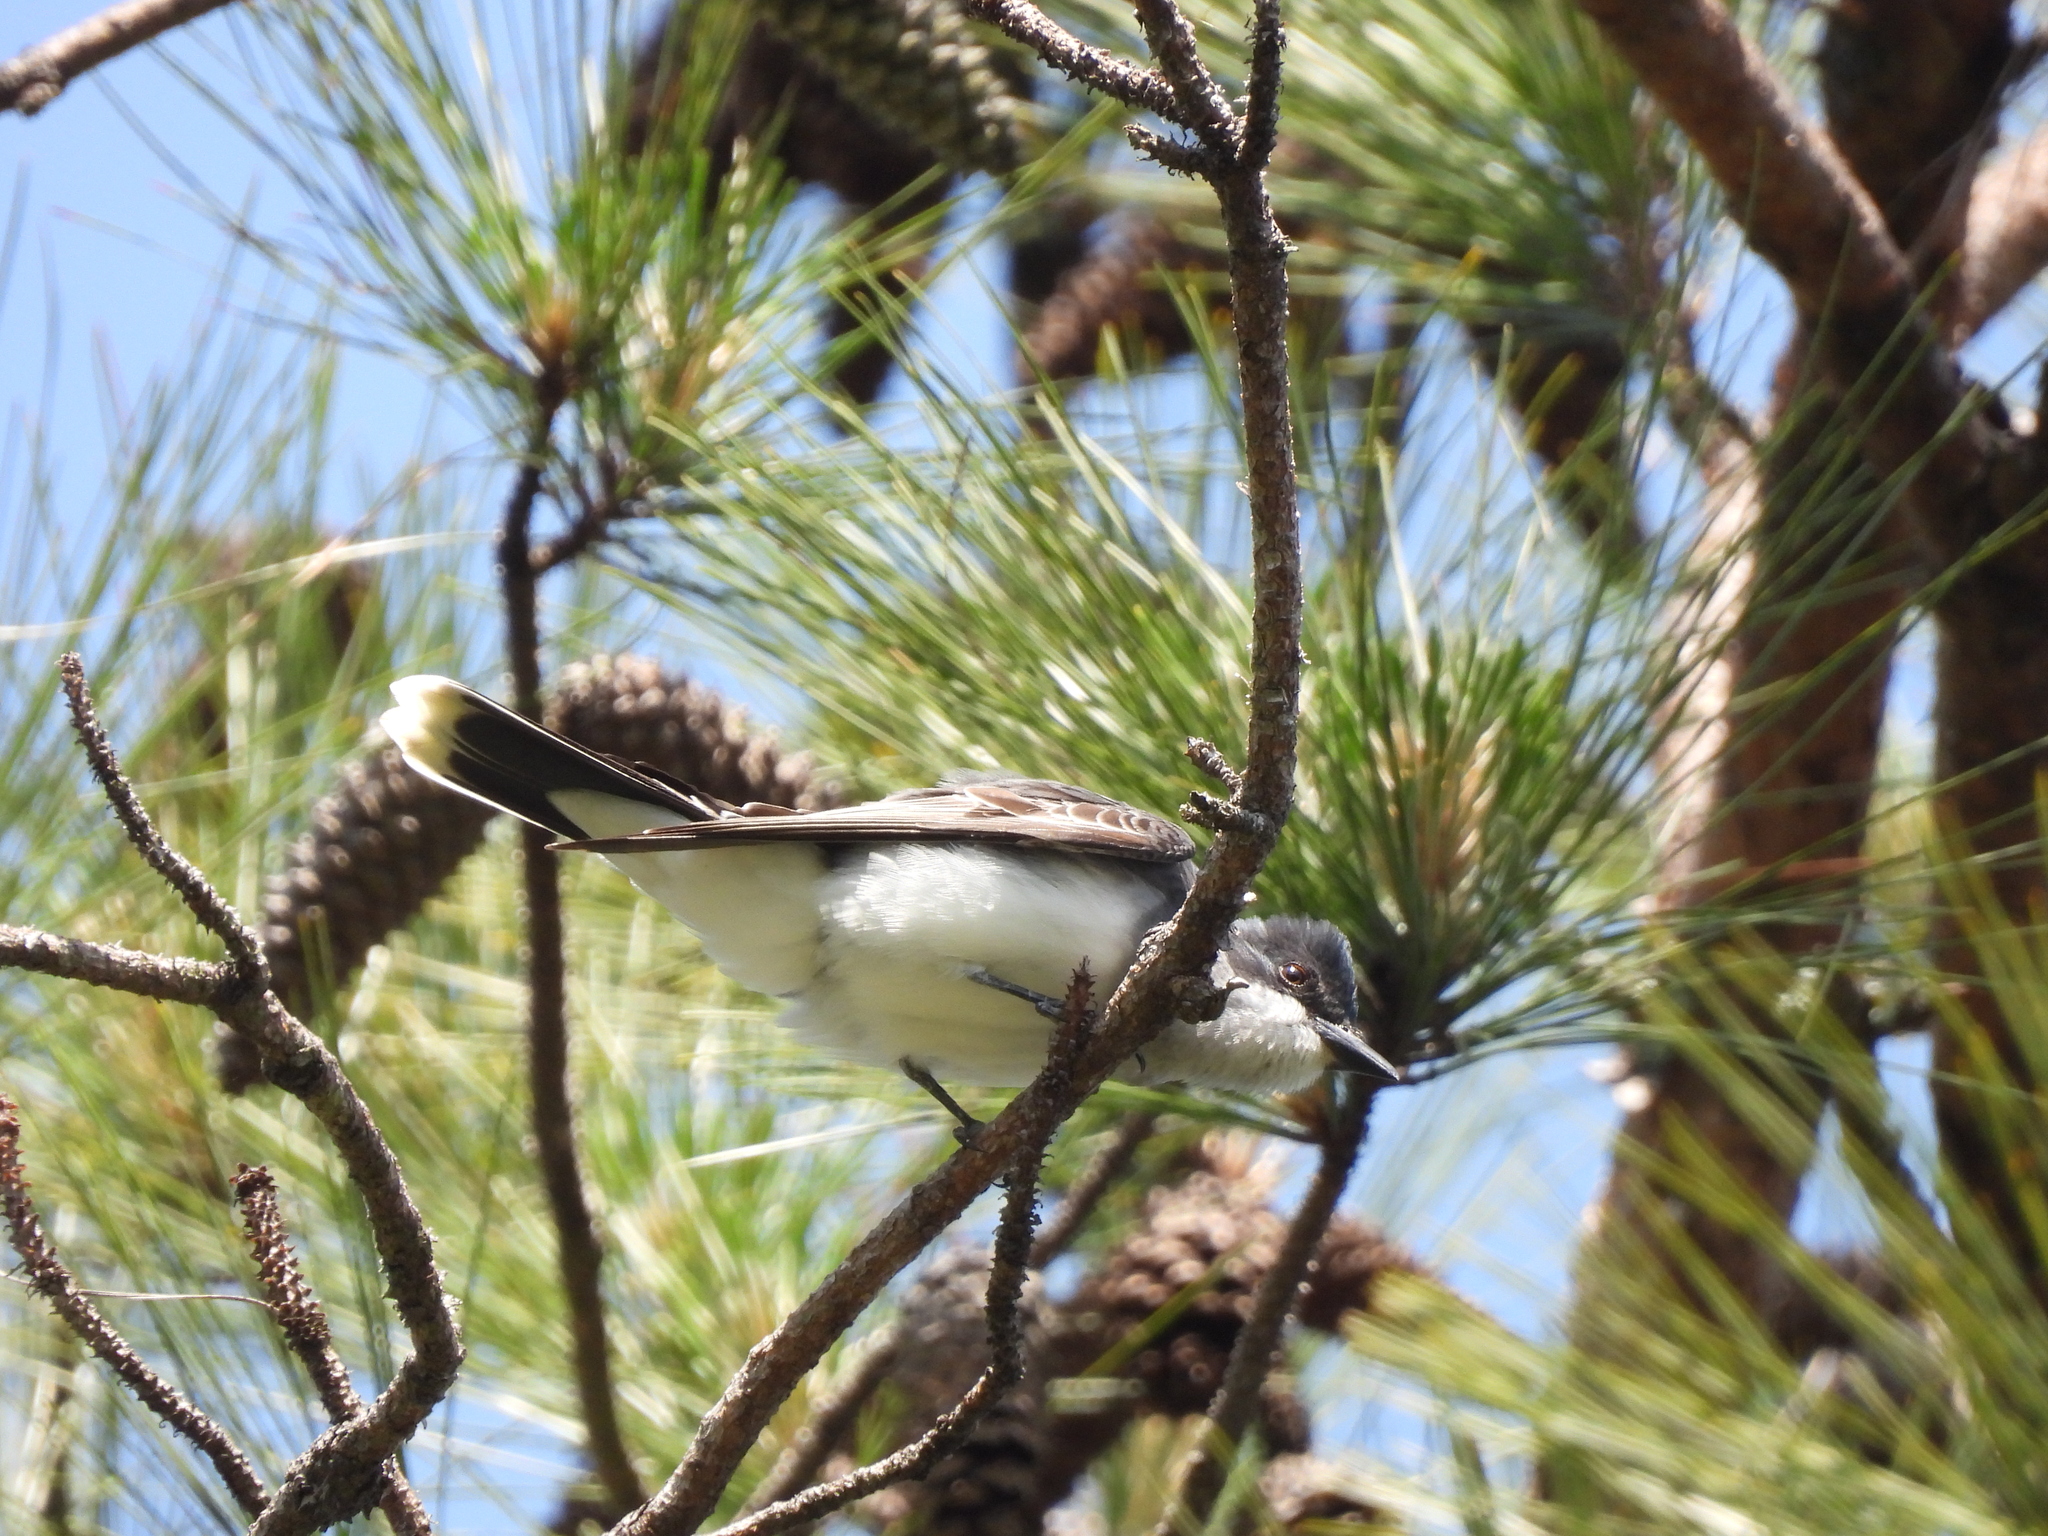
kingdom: Animalia
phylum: Chordata
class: Aves
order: Passeriformes
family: Tyrannidae
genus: Tyrannus
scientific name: Tyrannus tyrannus
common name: Eastern kingbird
